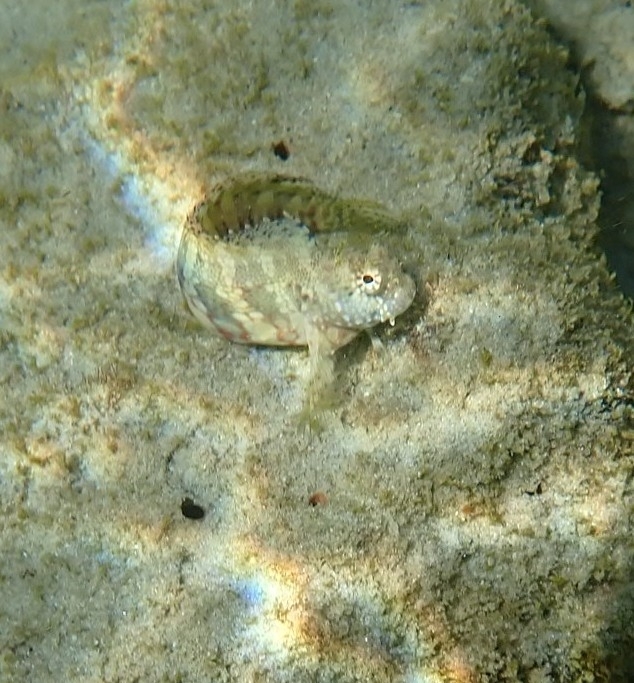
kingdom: Animalia
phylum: Chordata
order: Perciformes
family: Blenniidae
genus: Salarias
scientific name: Salarias fasciatus
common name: Jewelled blenny
